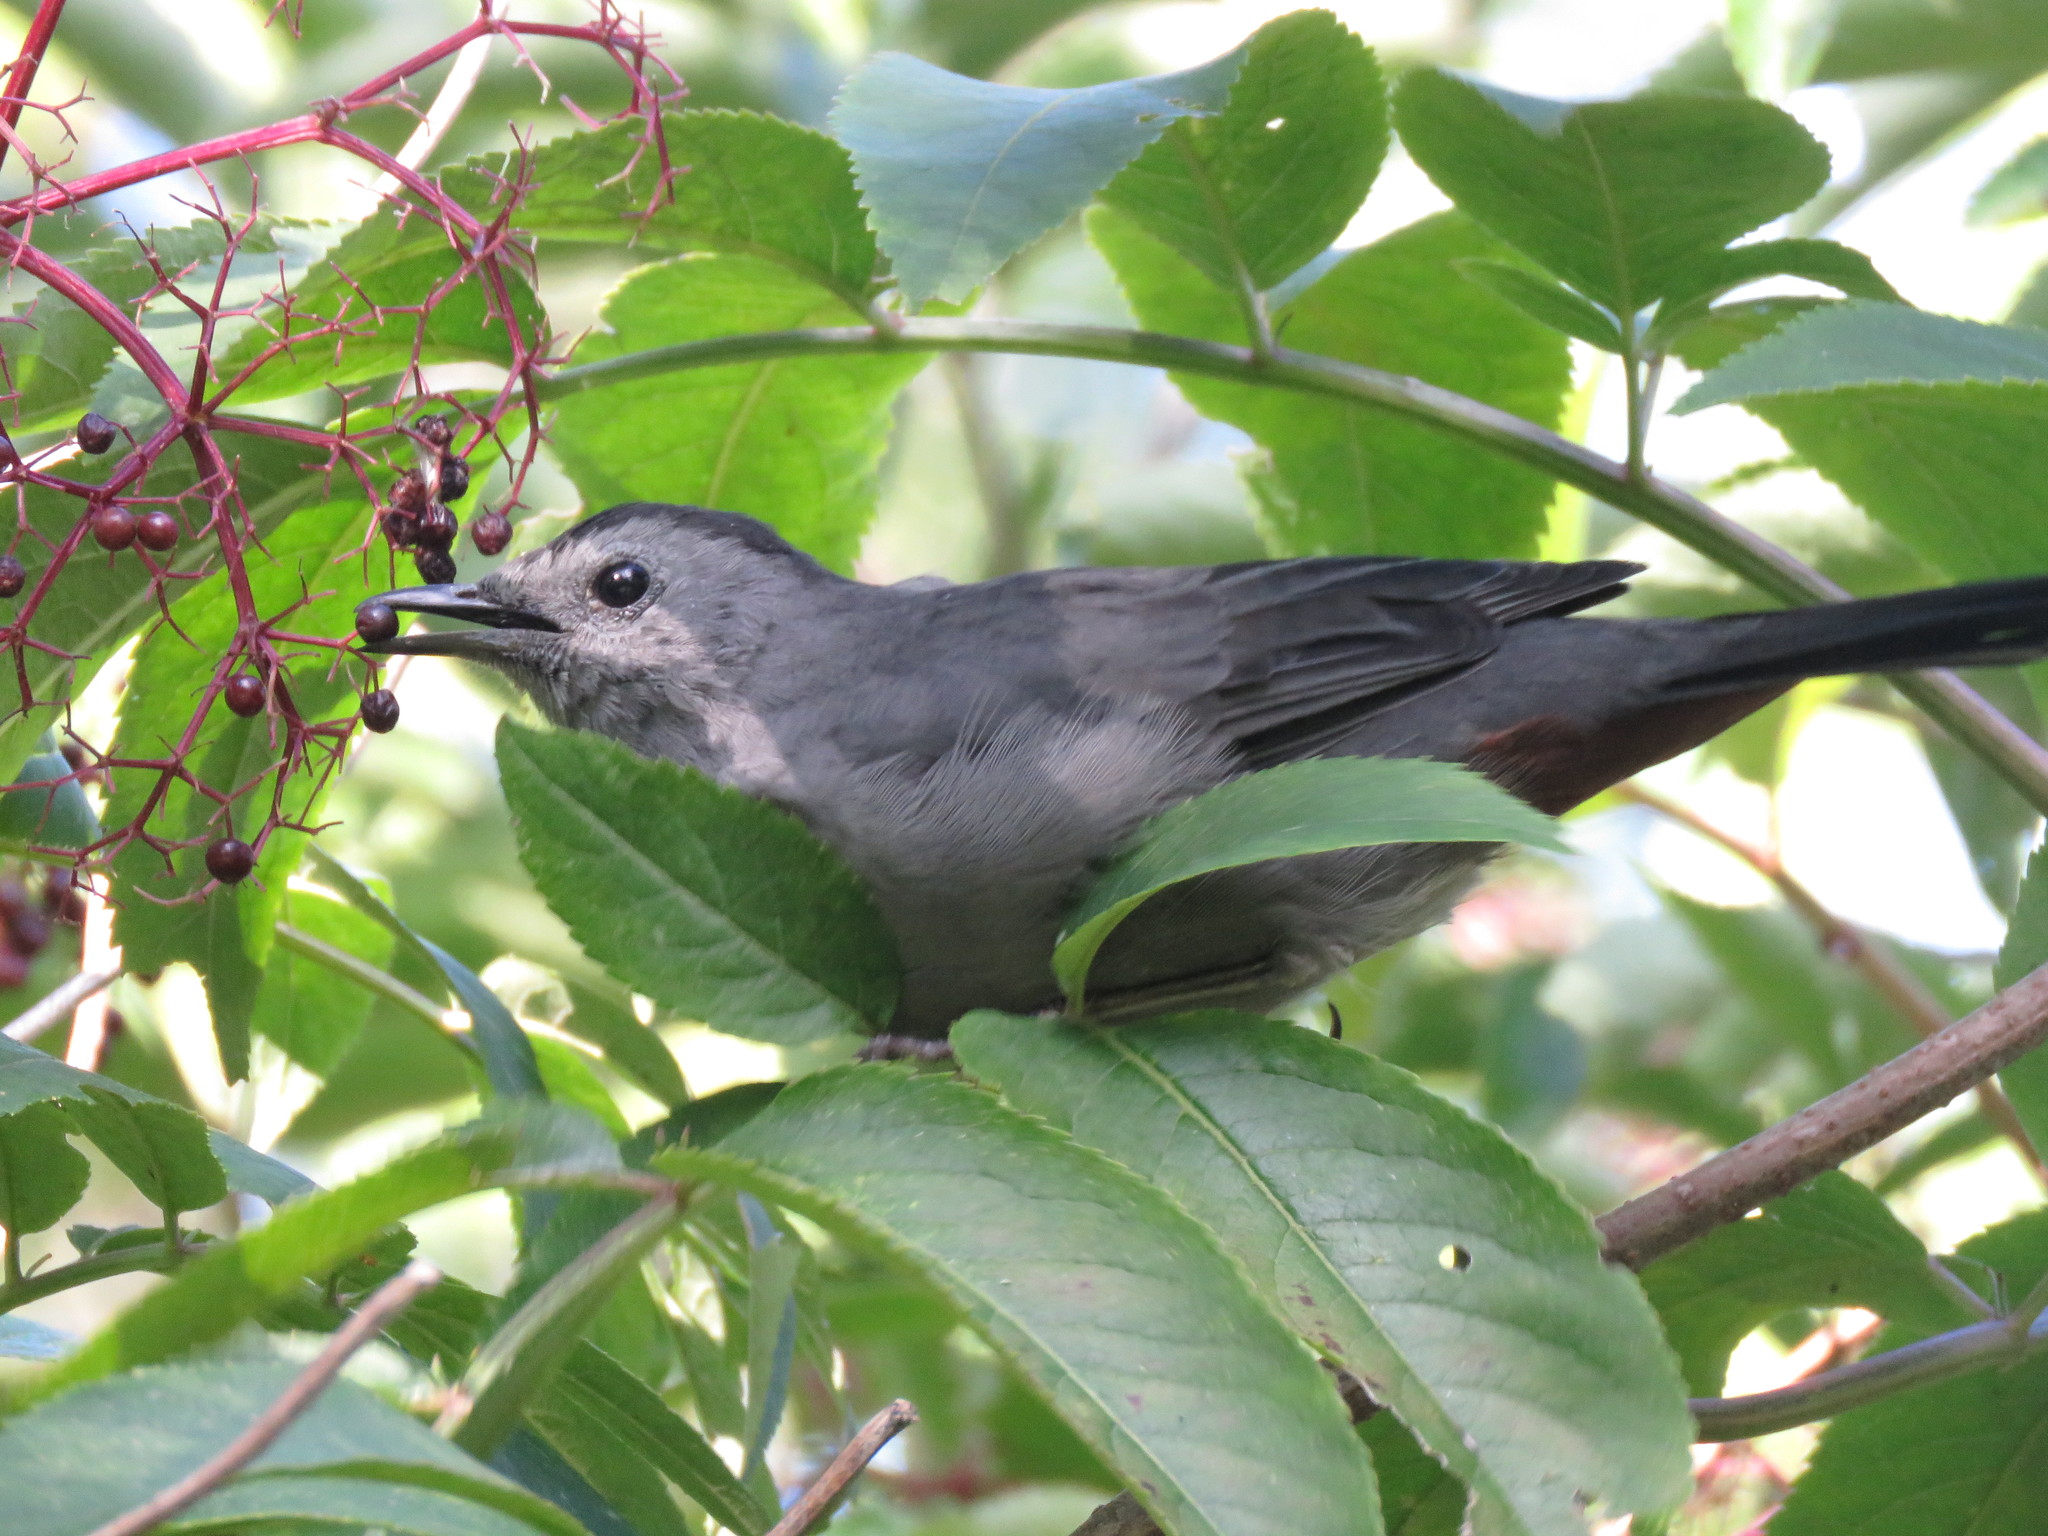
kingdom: Animalia
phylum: Chordata
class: Aves
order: Passeriformes
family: Mimidae
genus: Dumetella
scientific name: Dumetella carolinensis
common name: Gray catbird
